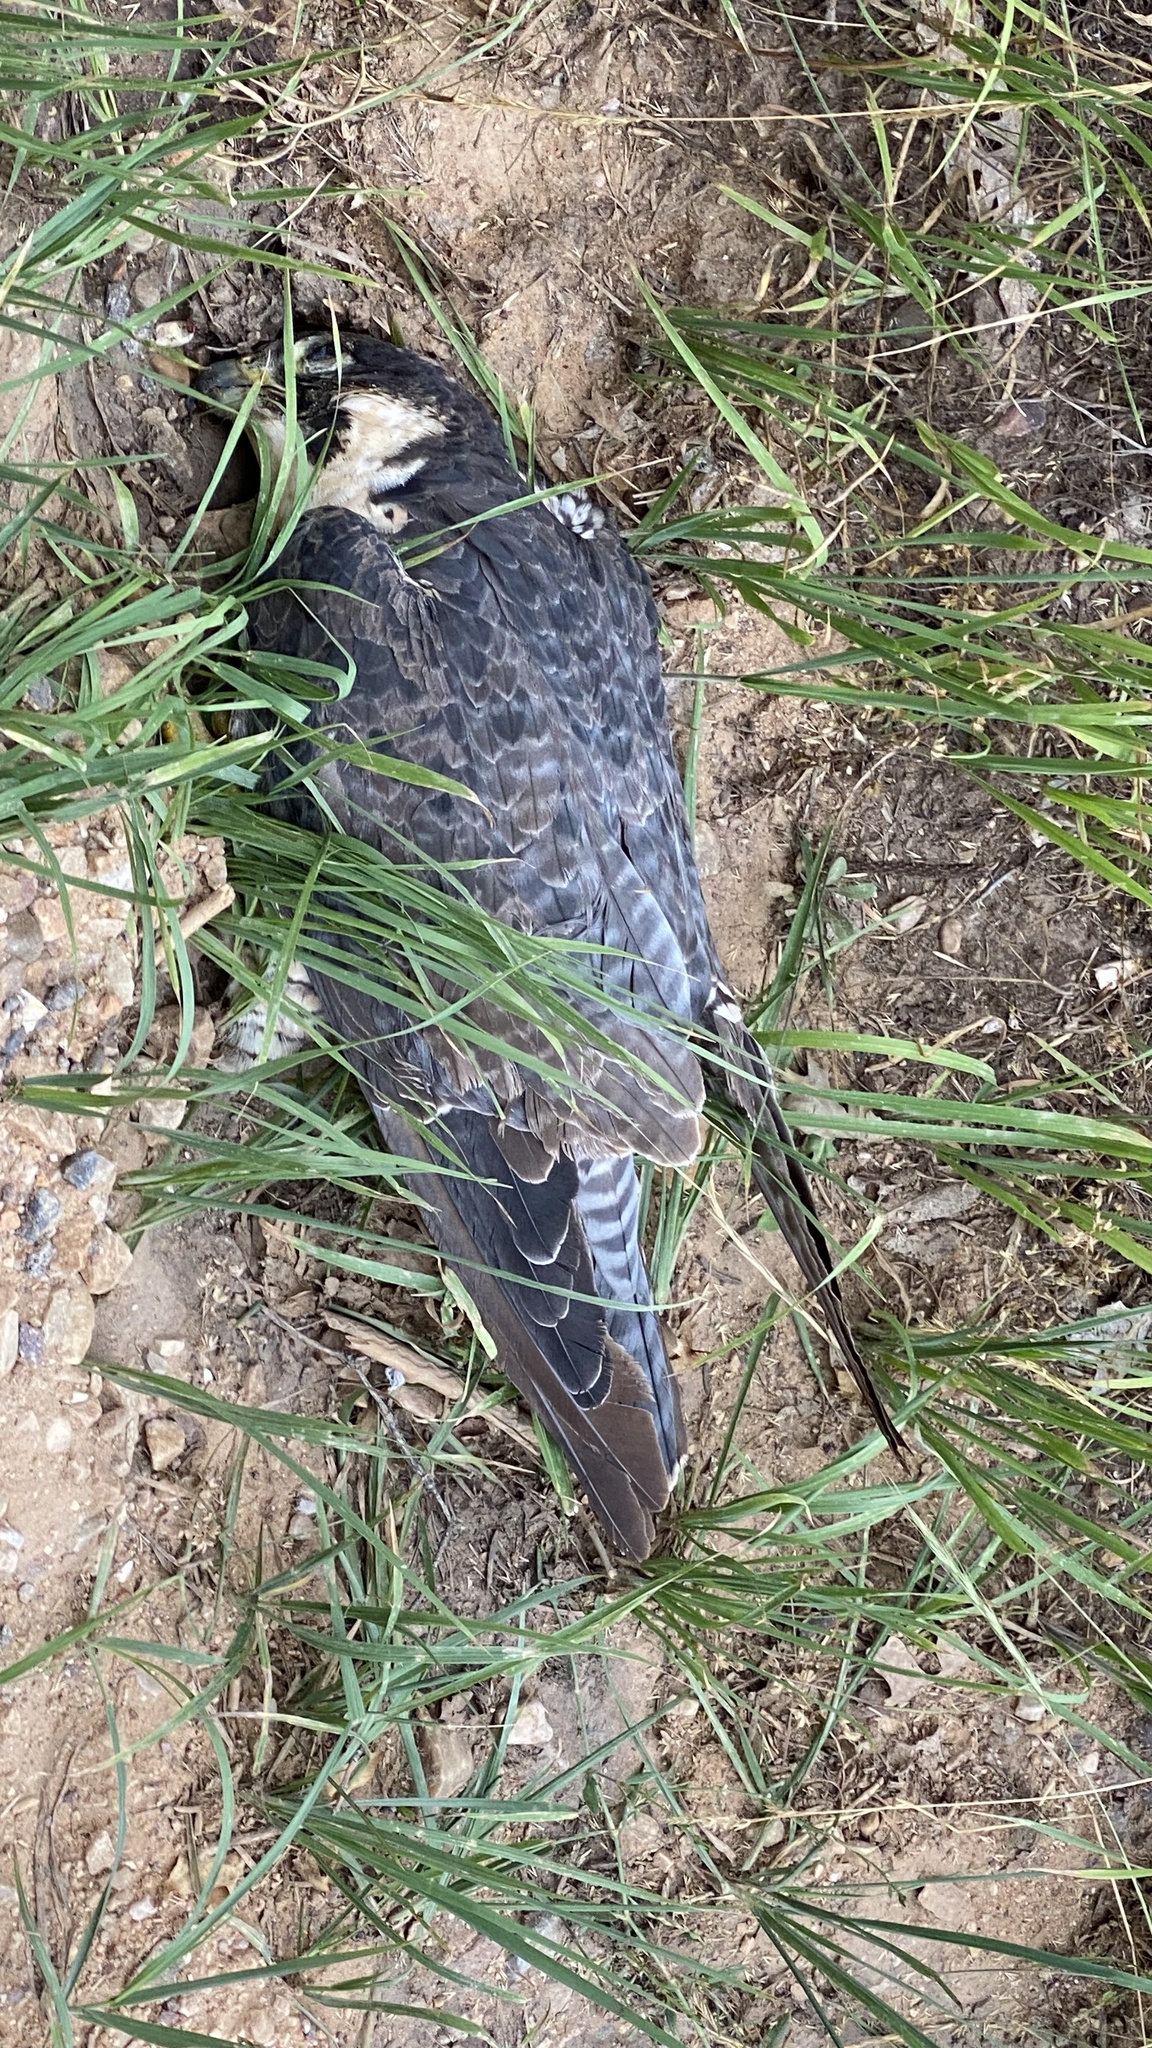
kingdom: Animalia
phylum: Chordata
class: Aves
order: Falconiformes
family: Falconidae
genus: Falco
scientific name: Falco peregrinus
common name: Peregrine falcon
